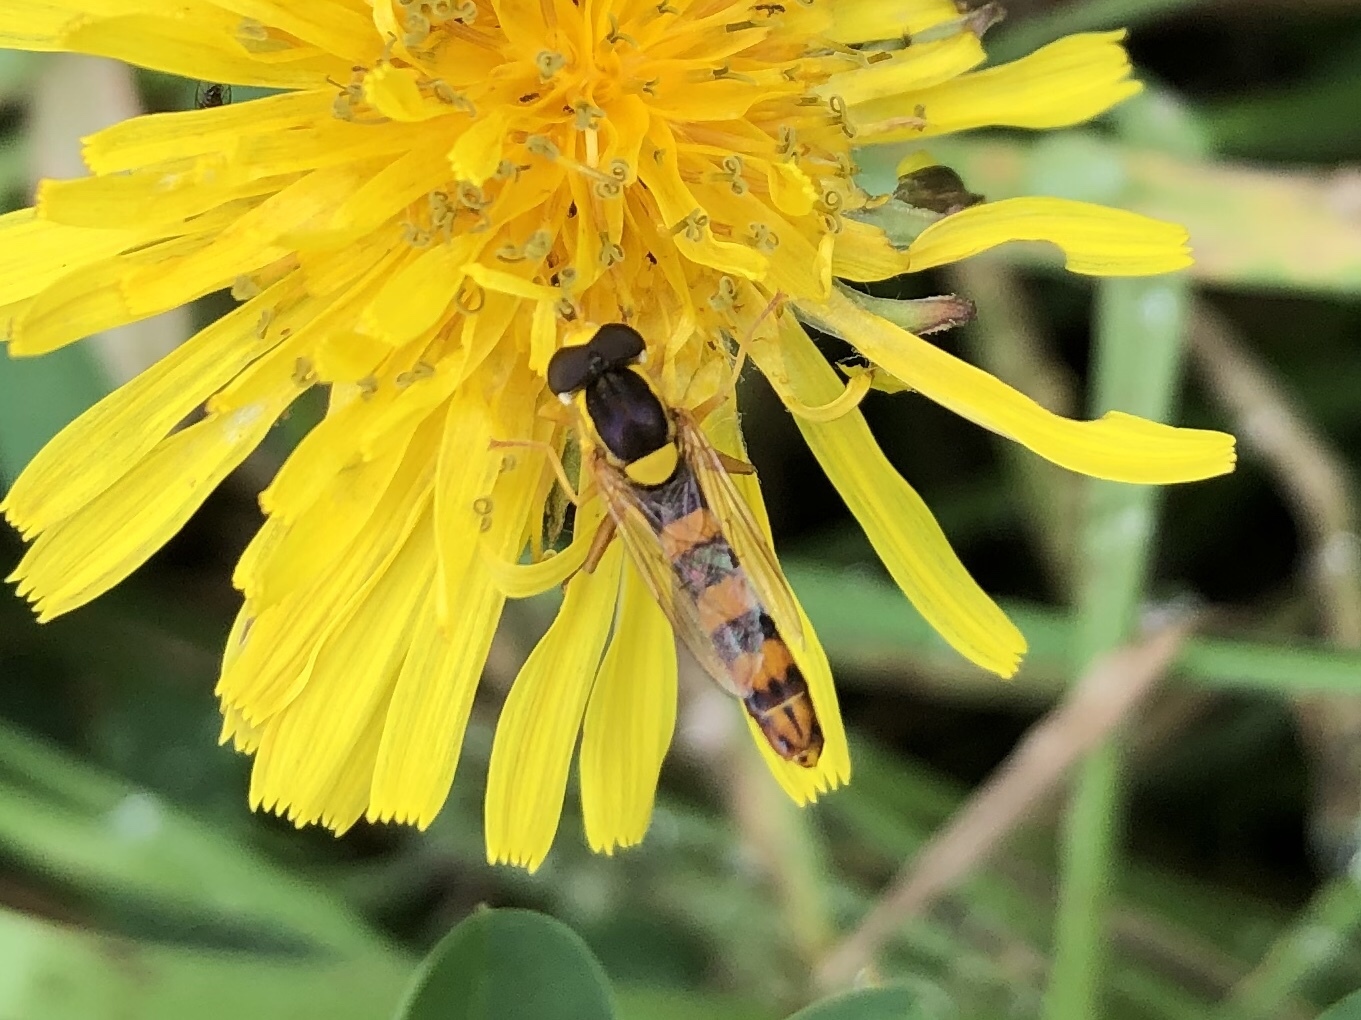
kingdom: Animalia
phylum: Arthropoda
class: Insecta
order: Diptera
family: Syrphidae
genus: Sphaerophoria
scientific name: Sphaerophoria scripta
